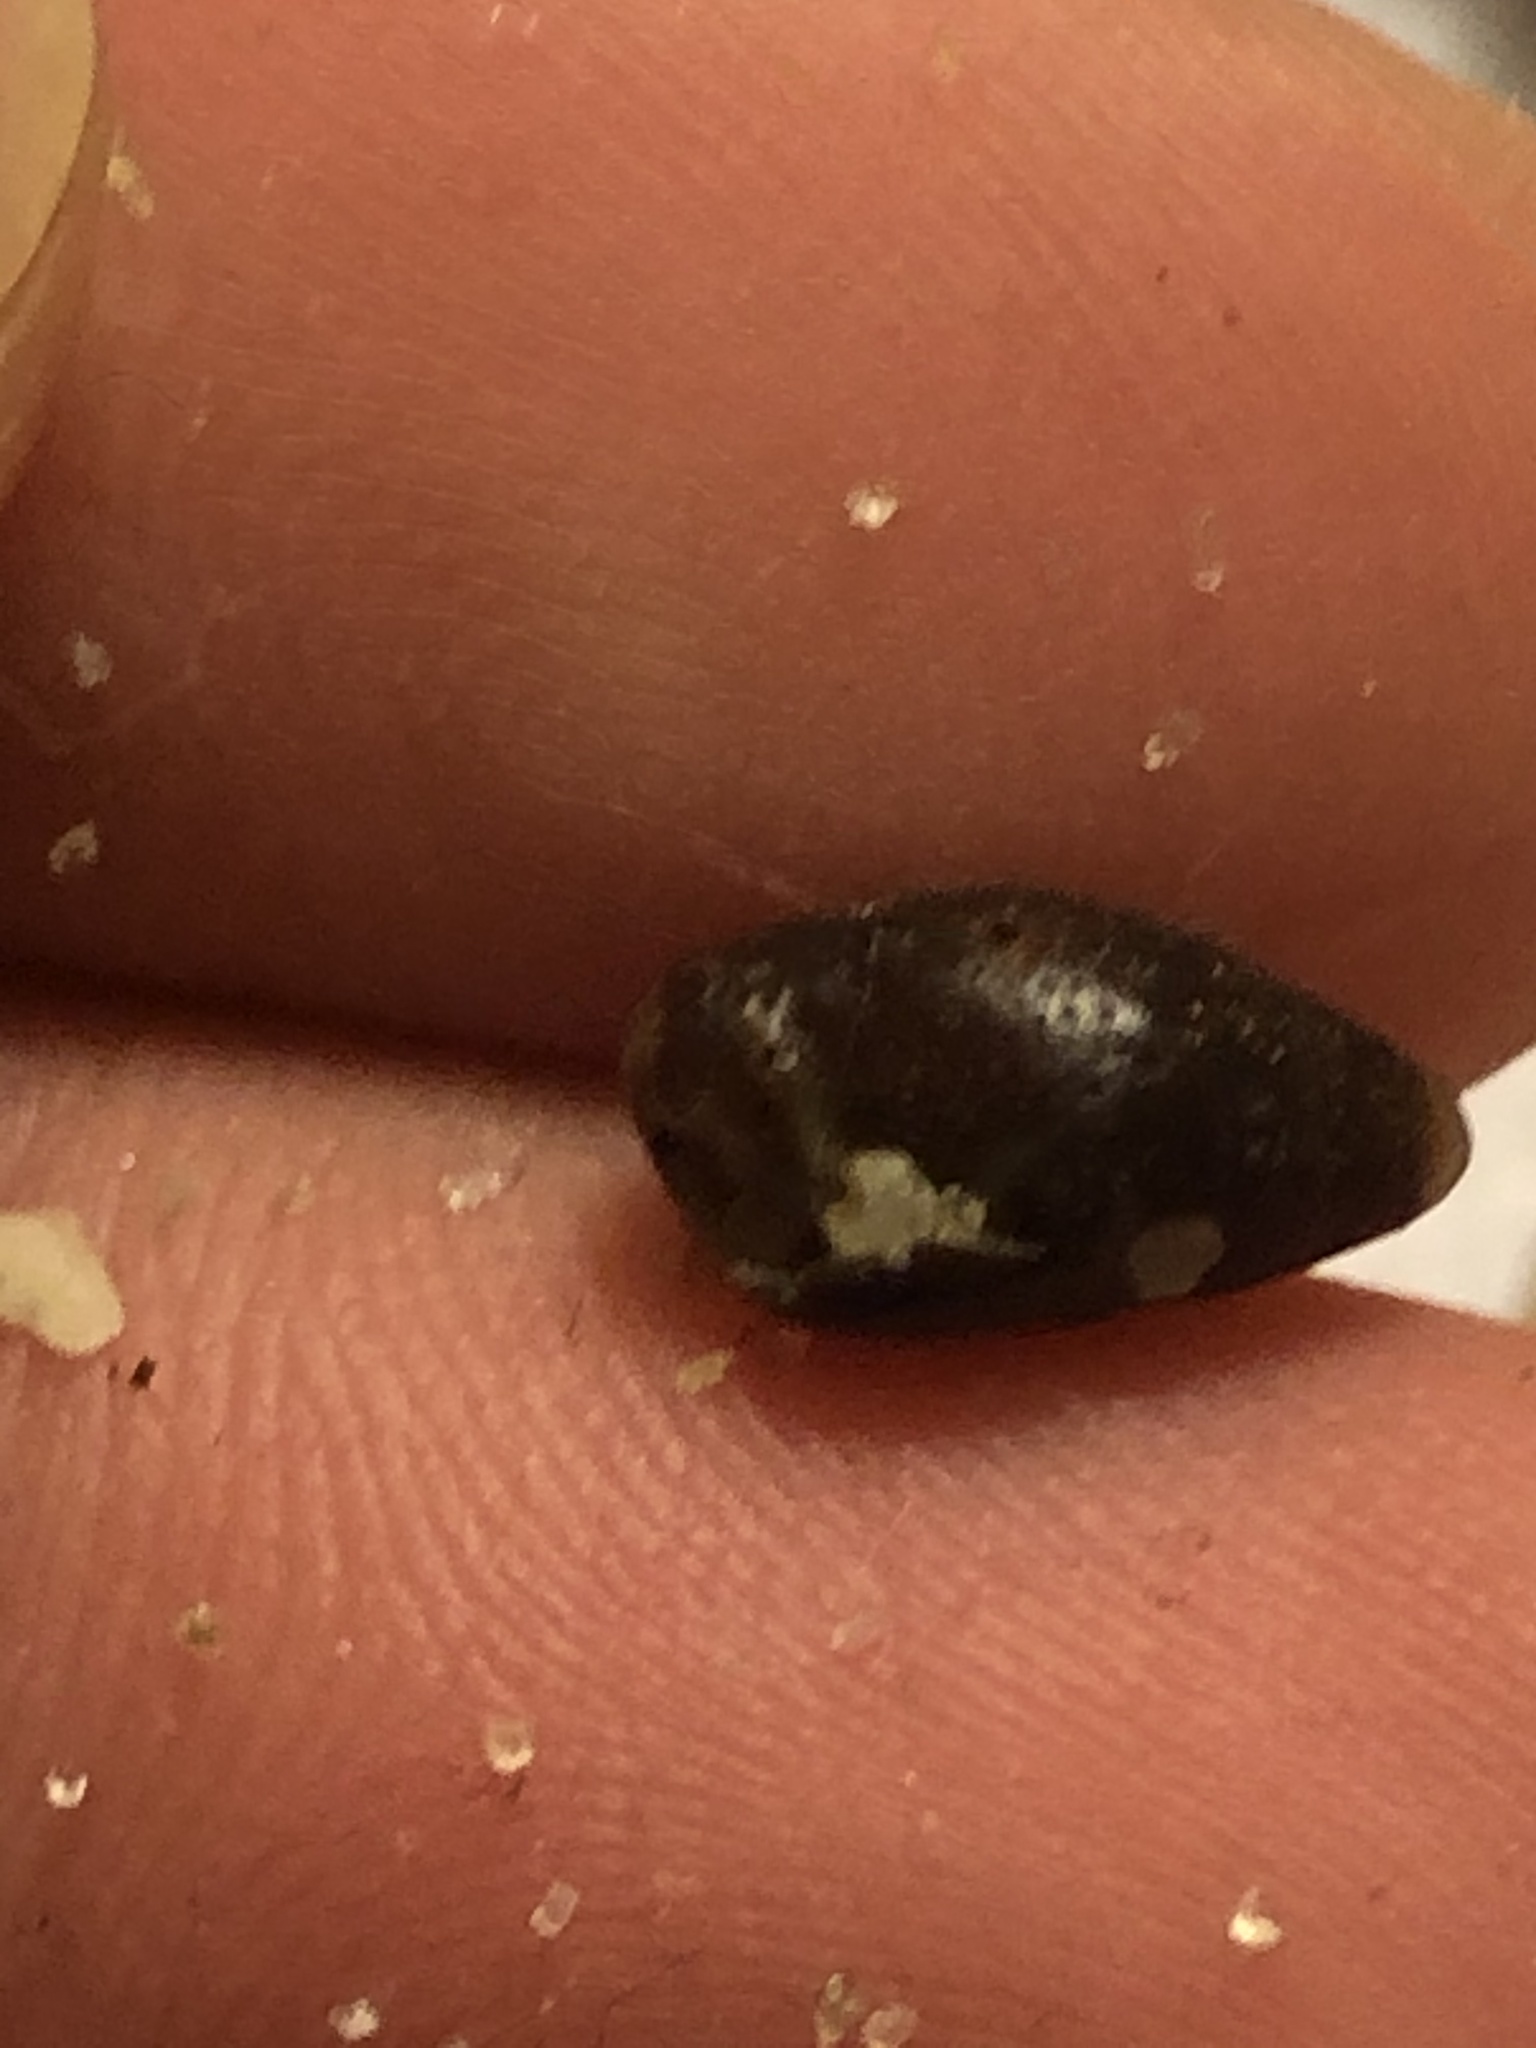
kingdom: Animalia
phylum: Mollusca
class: Gastropoda
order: Neogastropoda
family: Mitridae
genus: Atrimitra
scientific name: Atrimitra idae
